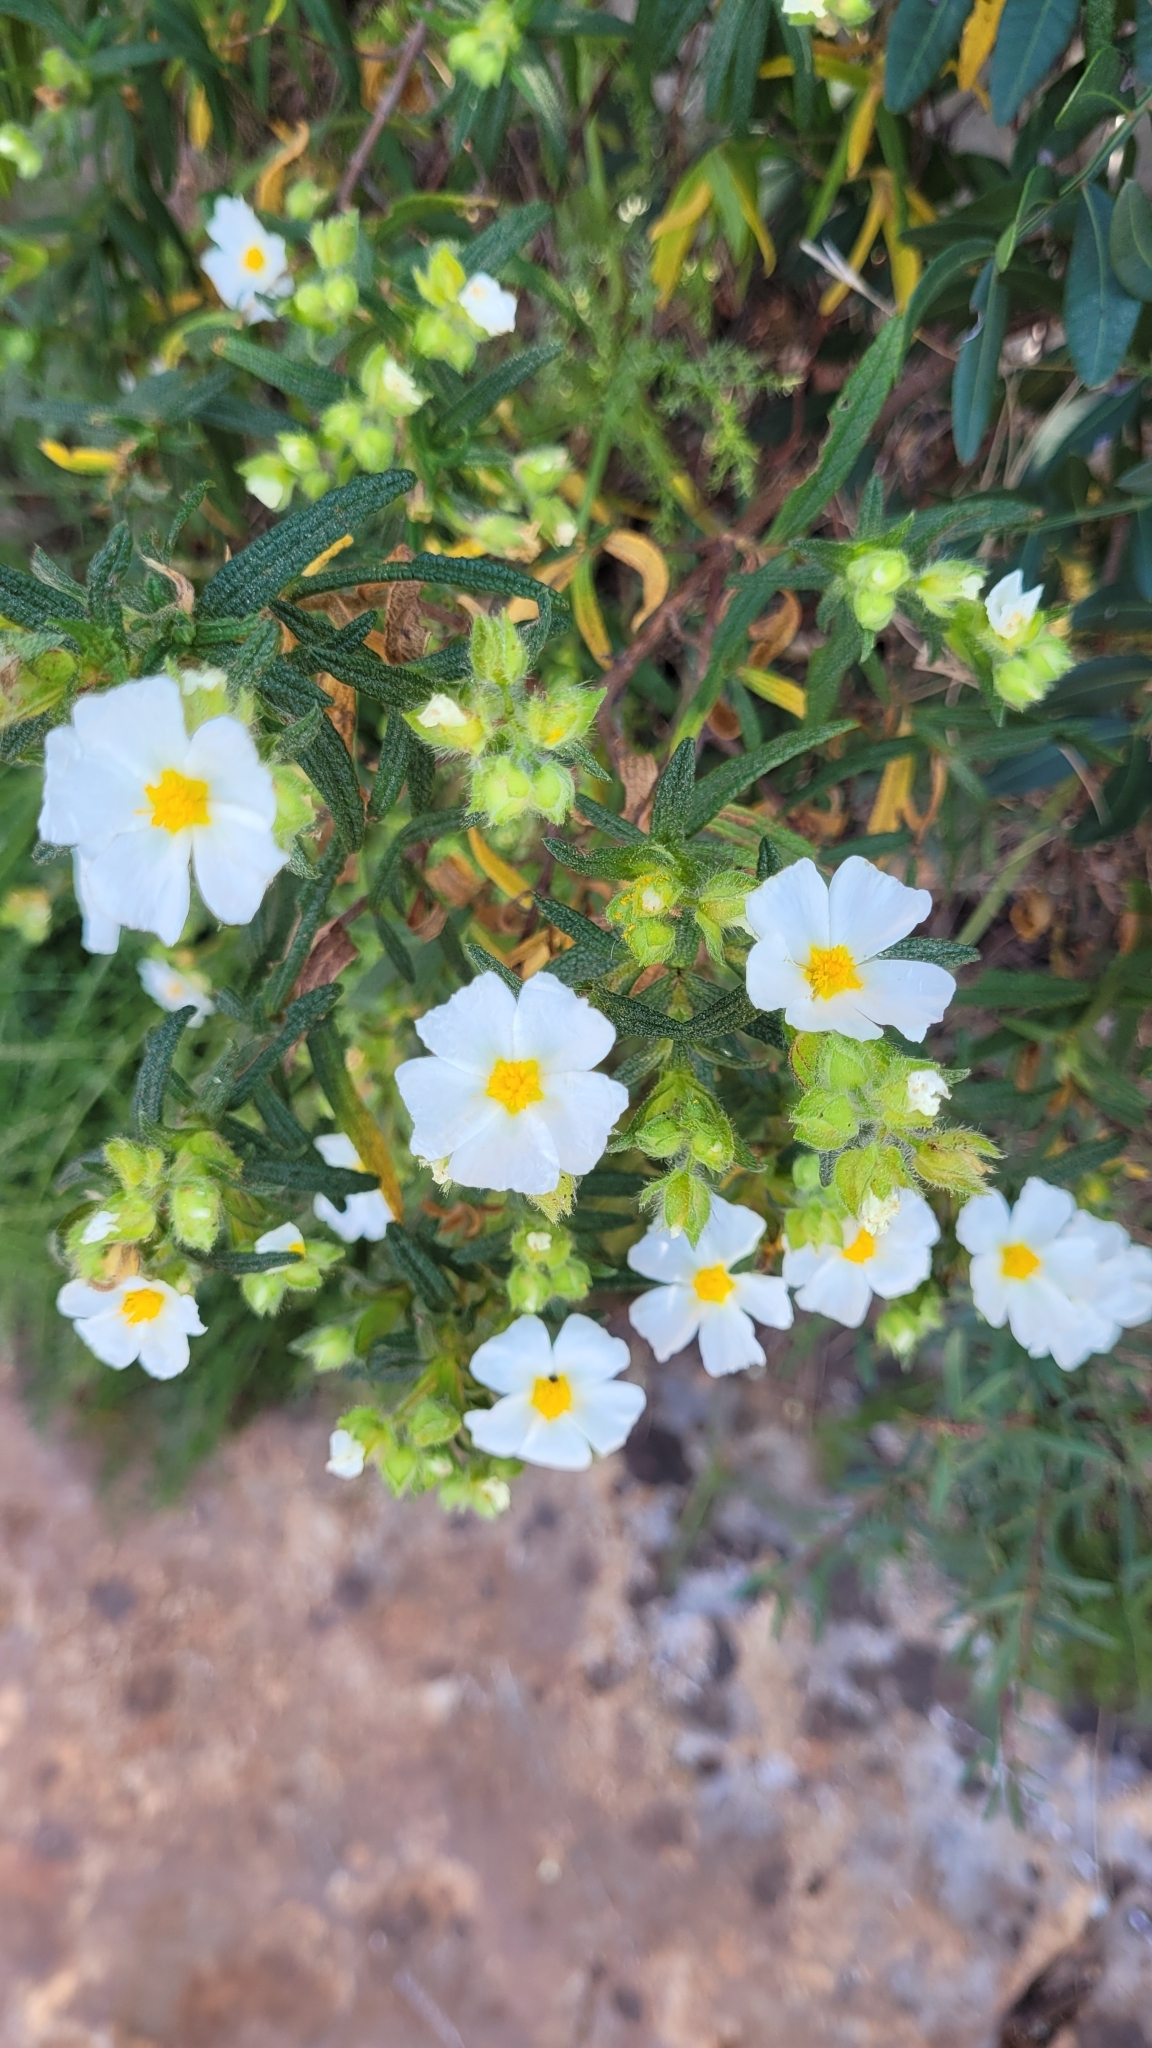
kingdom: Plantae
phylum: Tracheophyta
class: Magnoliopsida
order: Malvales
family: Cistaceae
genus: Cistus
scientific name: Cistus monspeliensis
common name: Montpelier cistus
